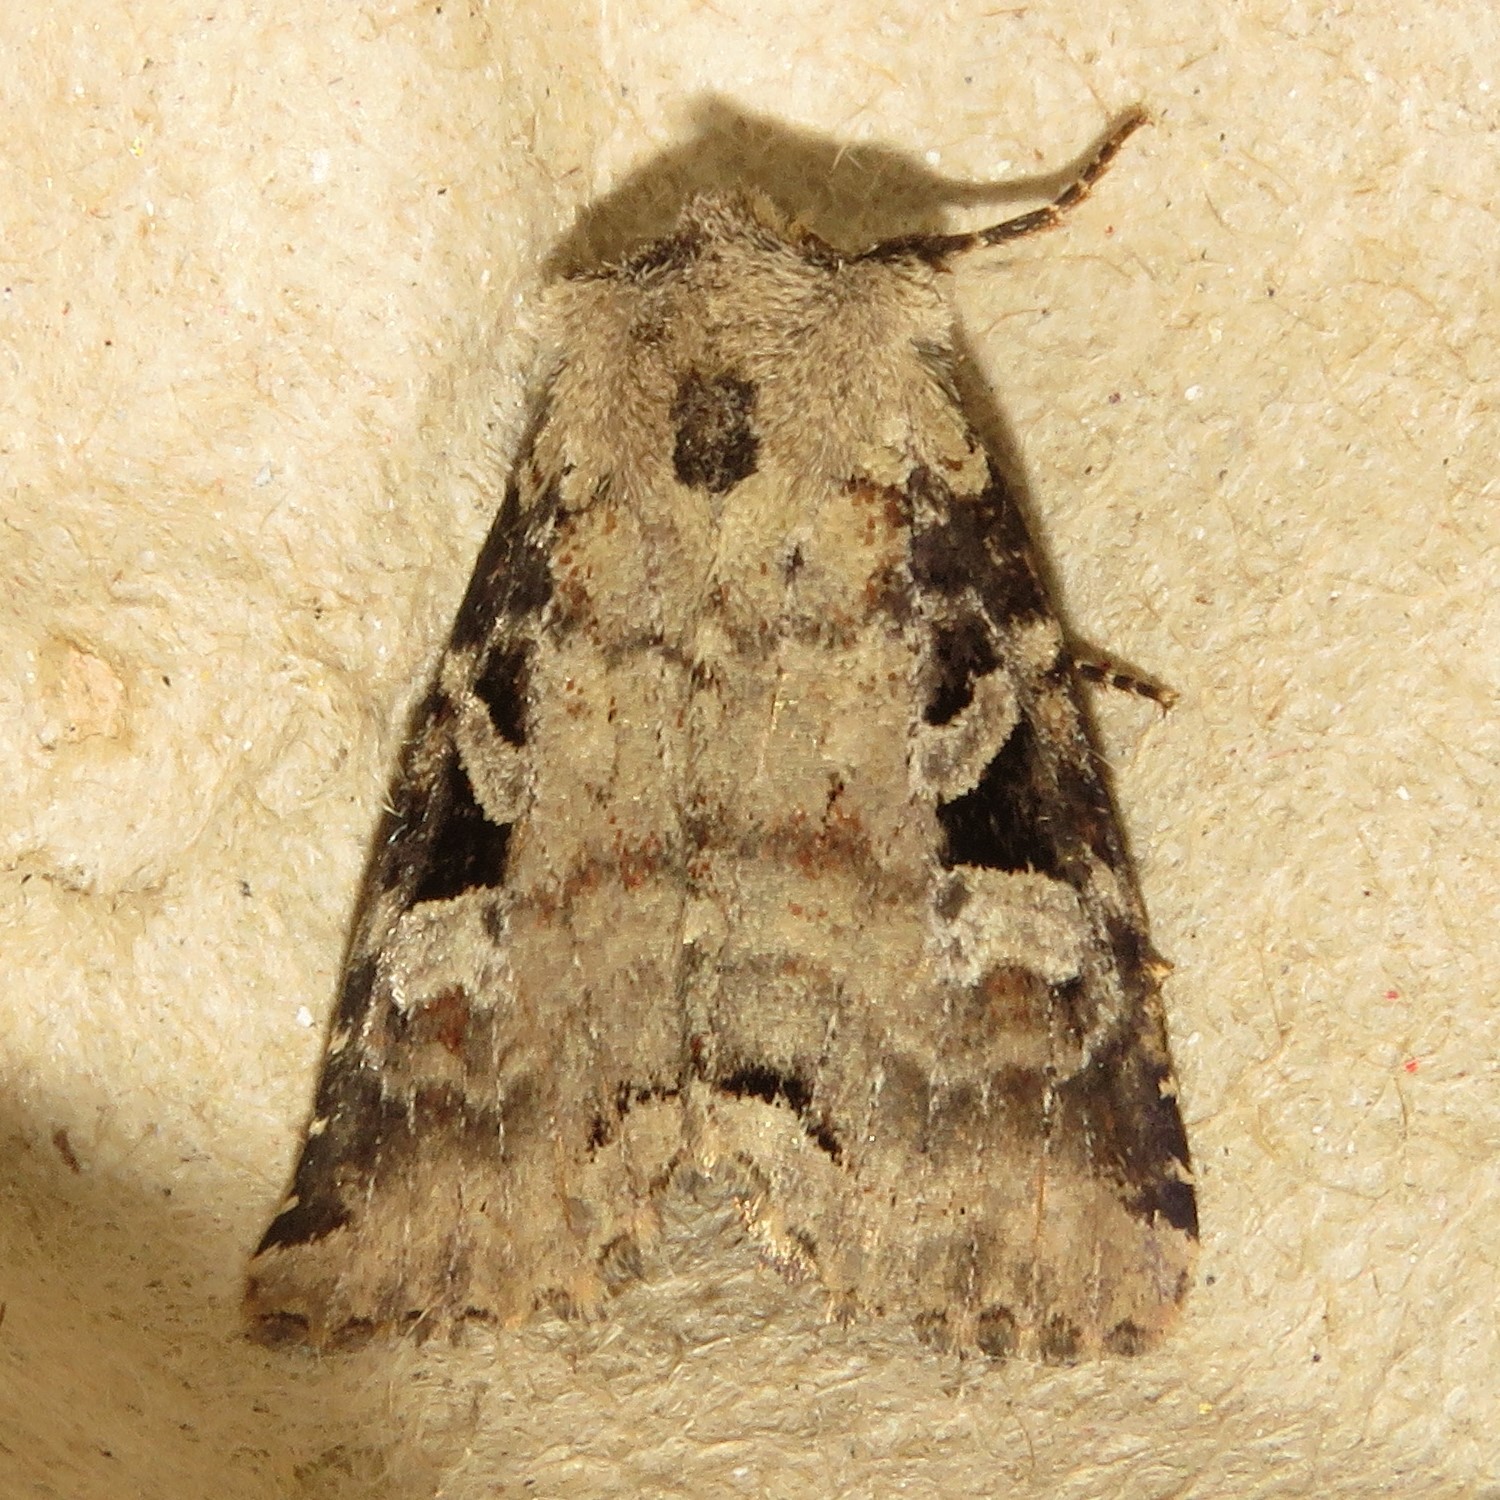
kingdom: Animalia
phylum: Arthropoda
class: Insecta
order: Lepidoptera
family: Noctuidae
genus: Hillia
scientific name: Hillia iris
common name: Iris rover moth
